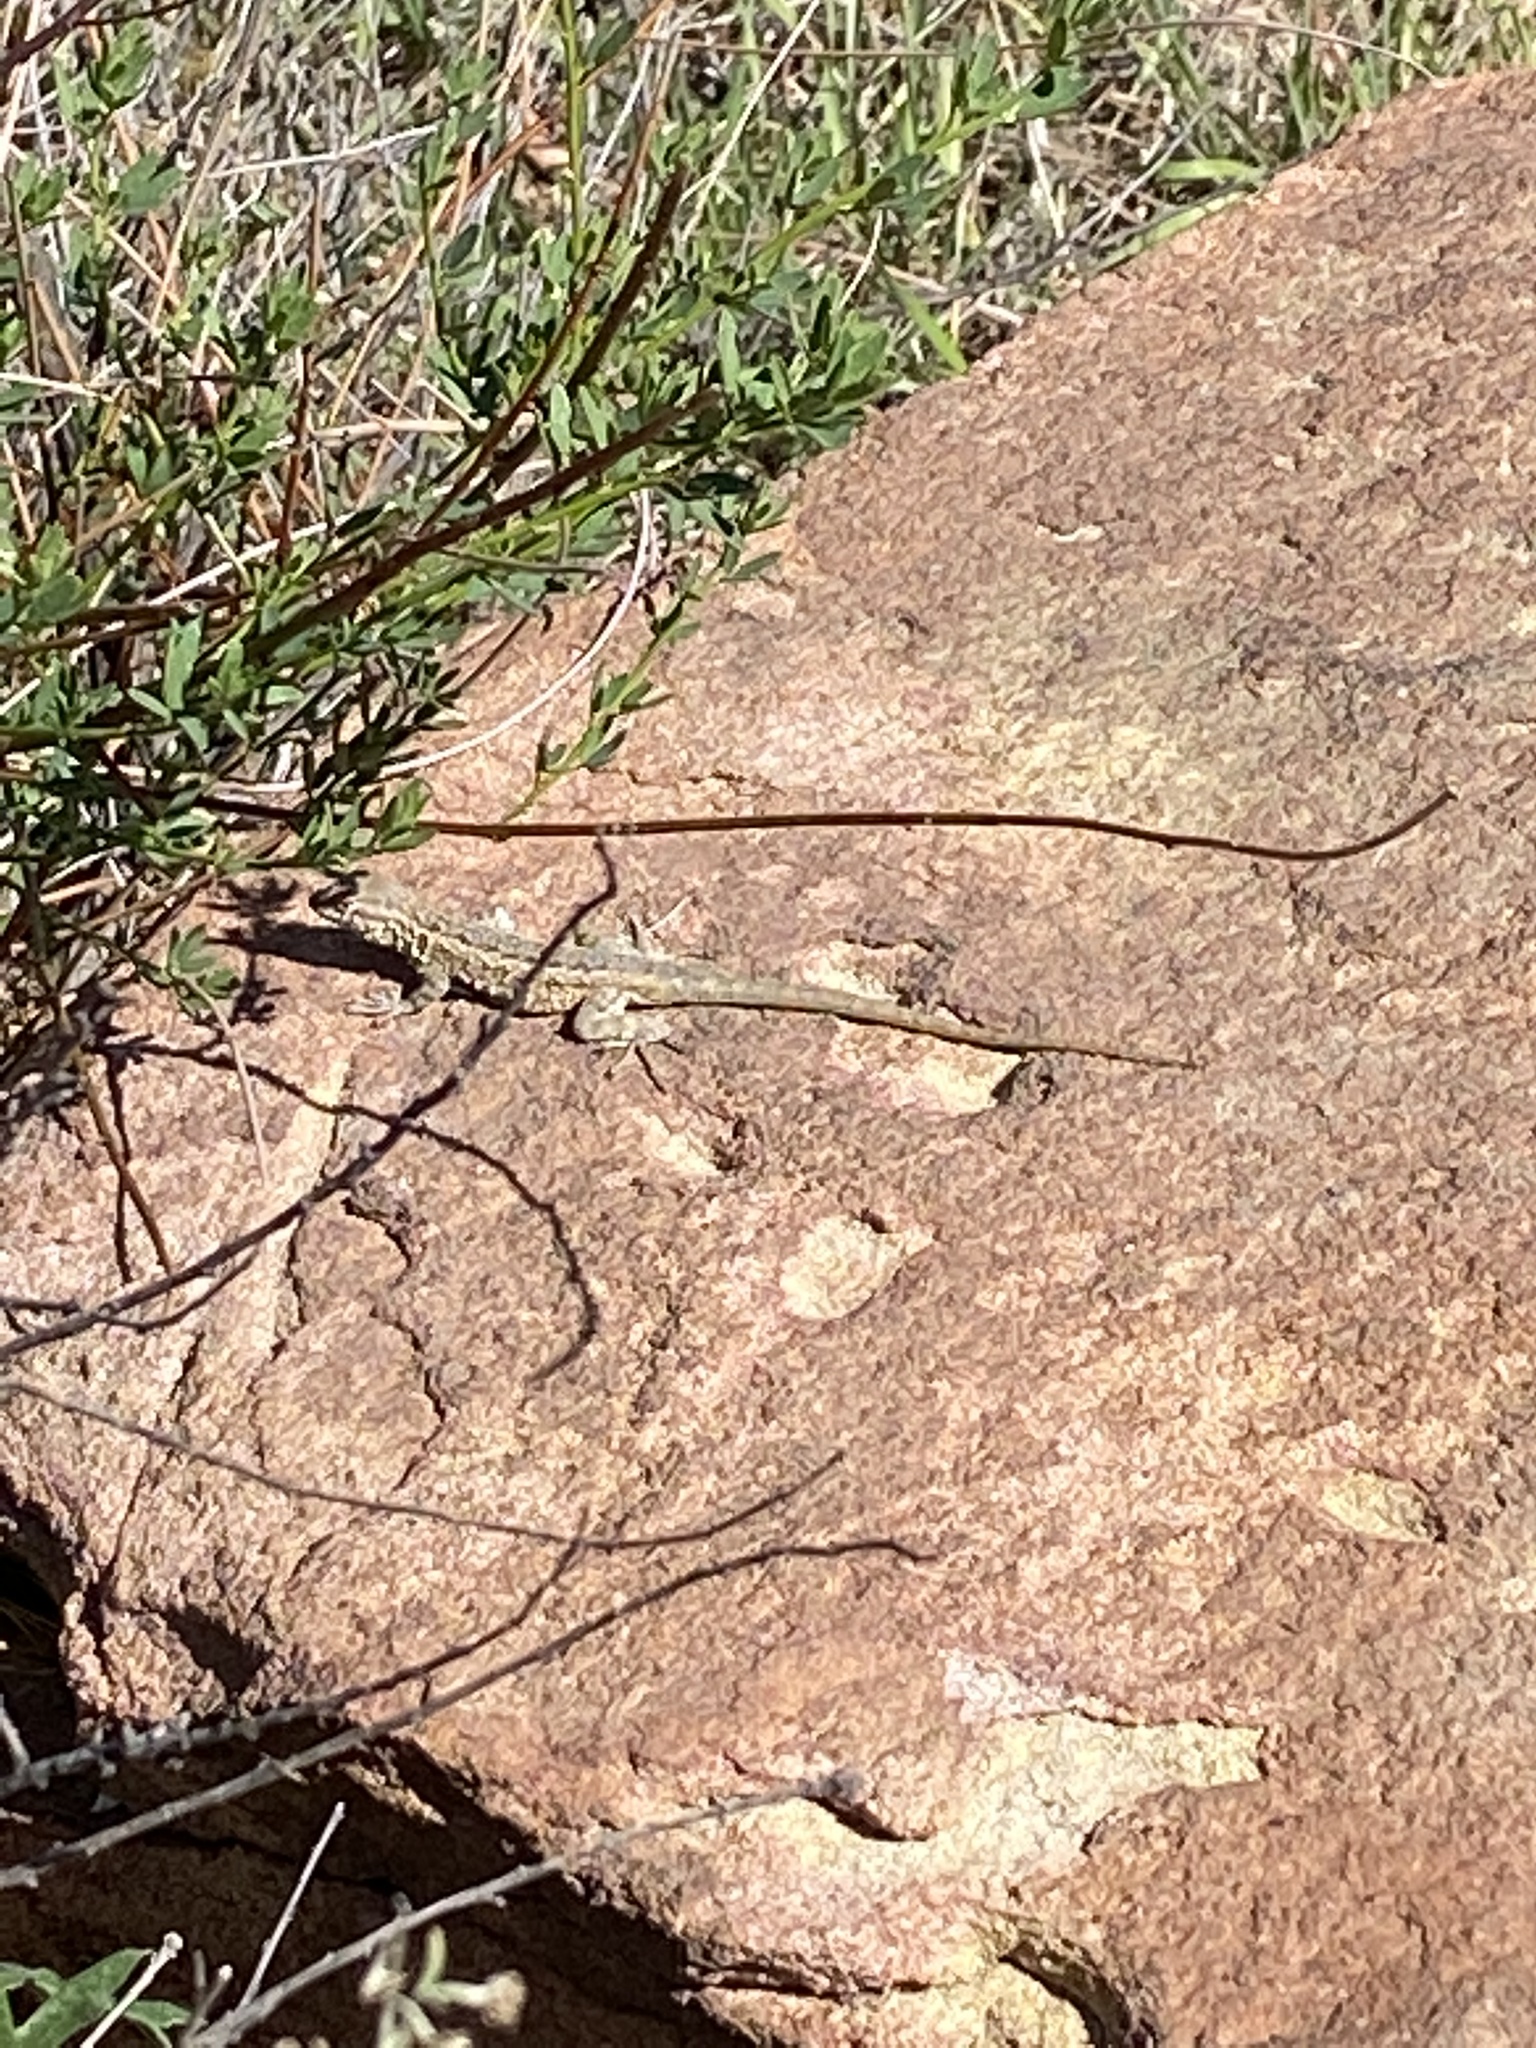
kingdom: Animalia
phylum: Chordata
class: Squamata
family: Phrynosomatidae
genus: Uta
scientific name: Uta stansburiana
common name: Side-blotched lizard
